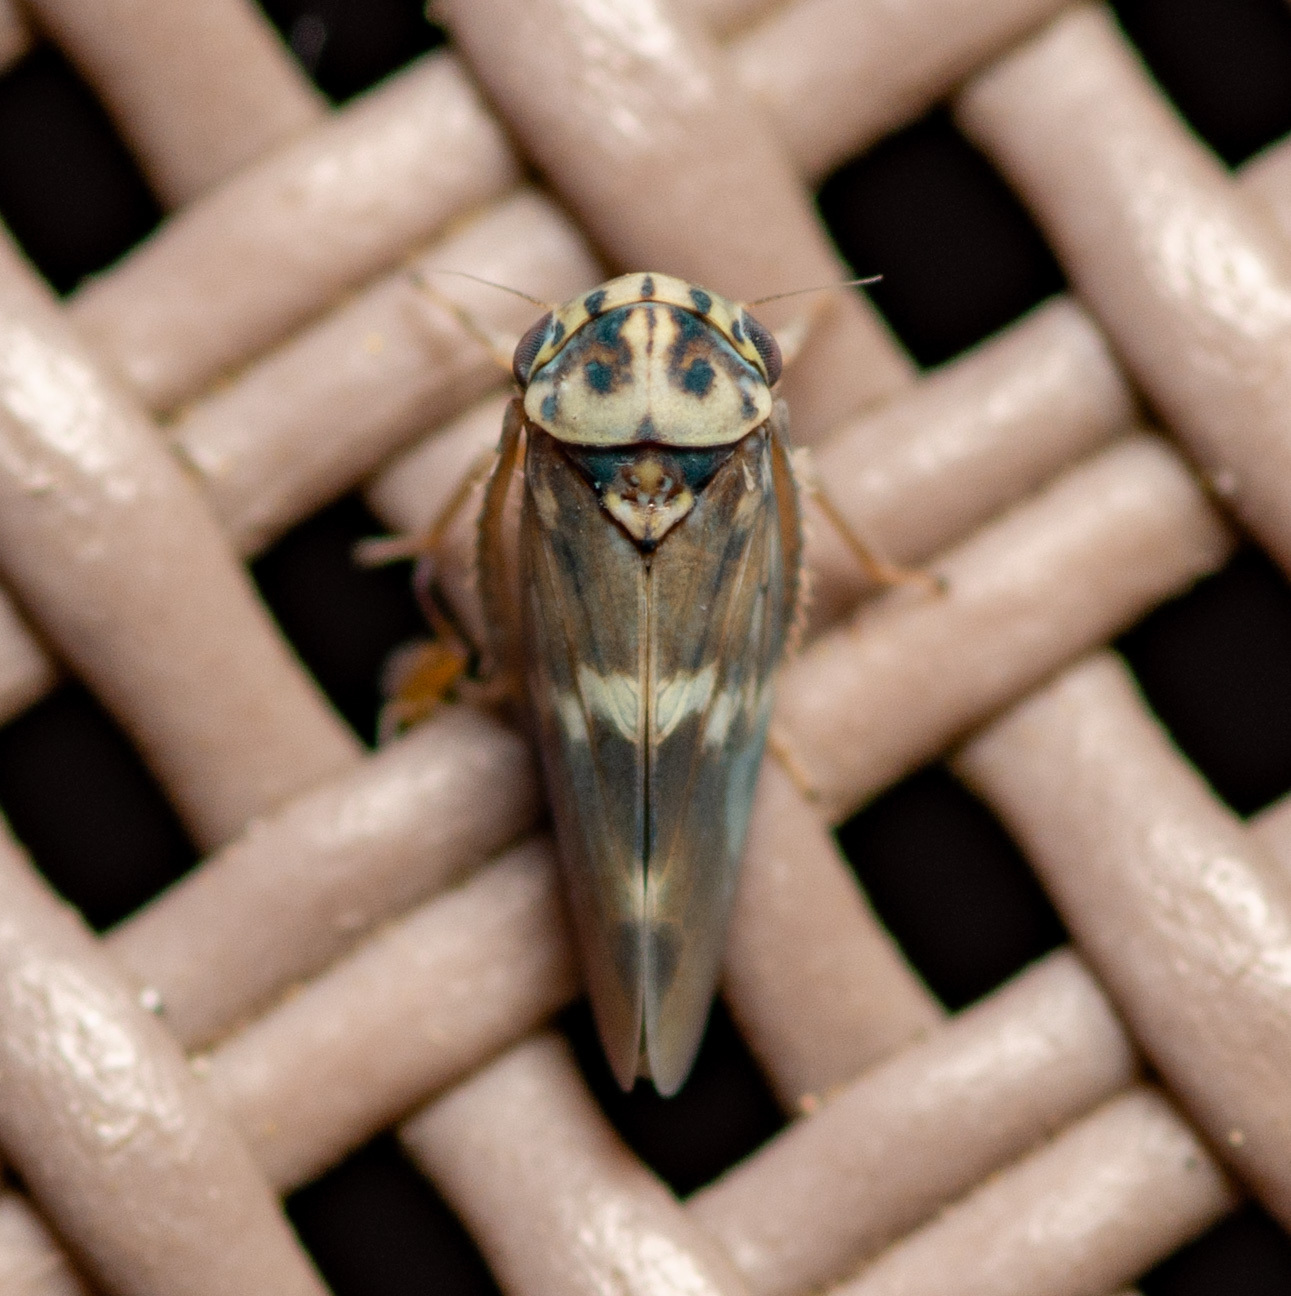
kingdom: Animalia
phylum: Arthropoda
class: Insecta
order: Hemiptera
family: Cicadellidae
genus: Agalliopsis
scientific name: Agalliopsis cervina
